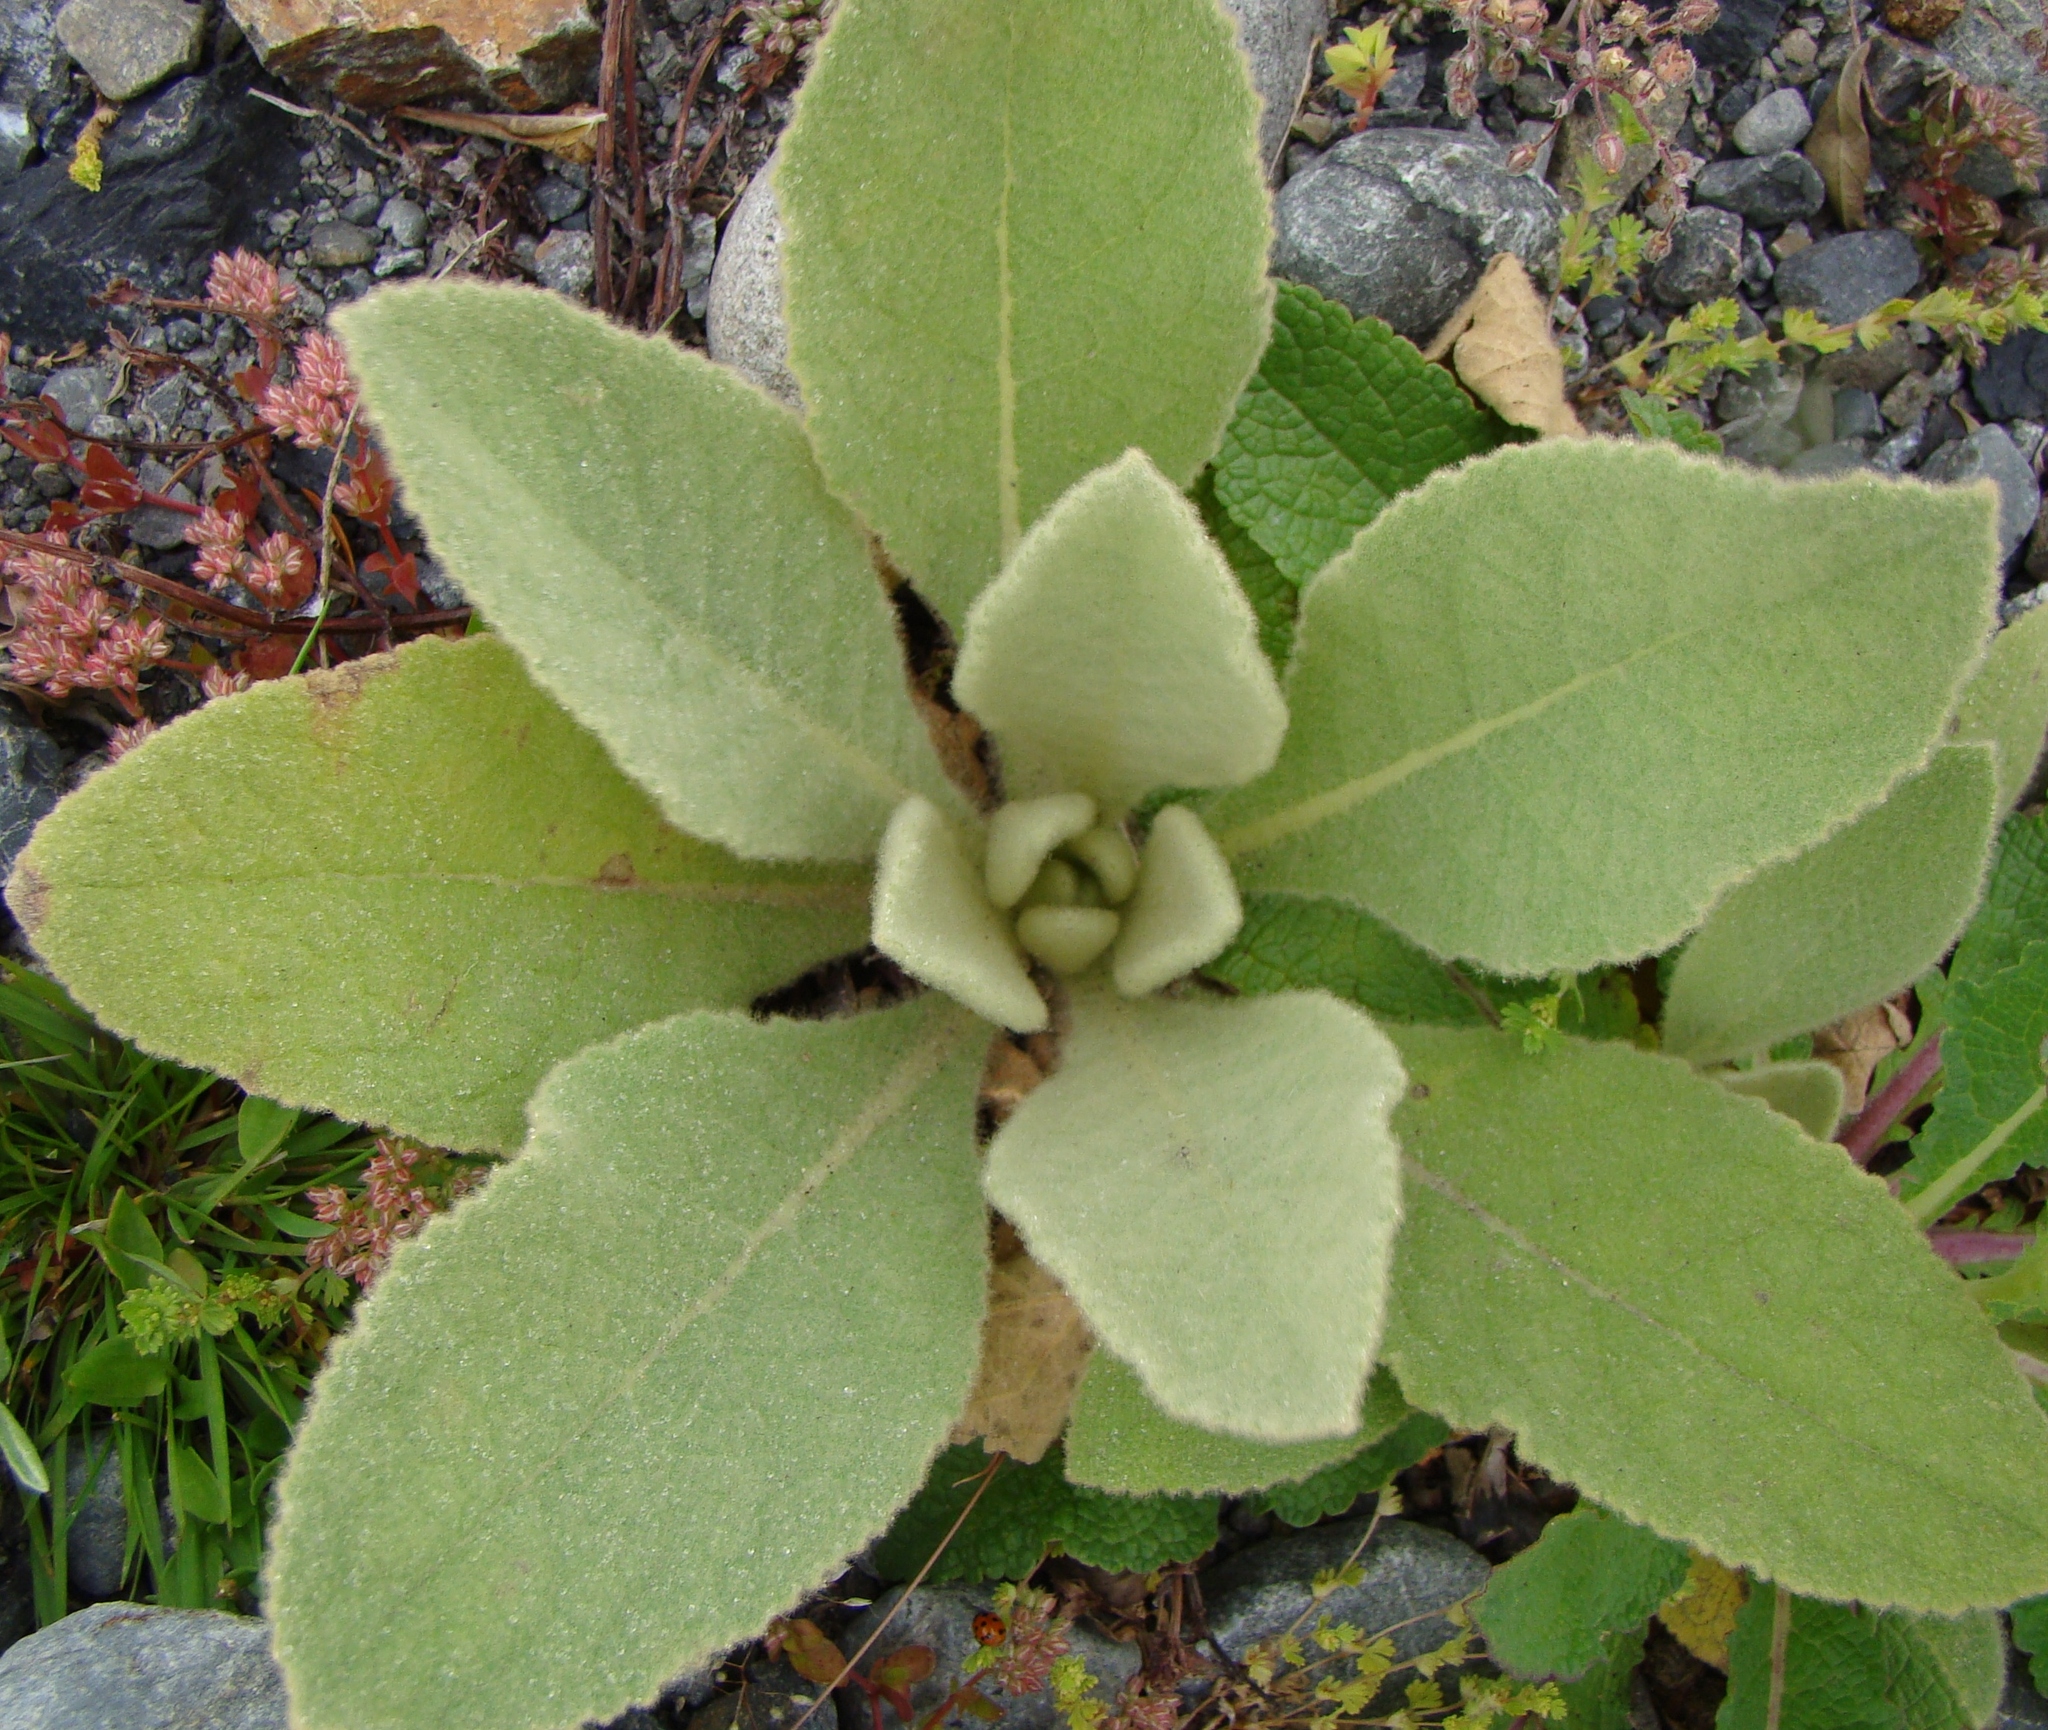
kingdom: Plantae
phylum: Tracheophyta
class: Magnoliopsida
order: Lamiales
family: Scrophulariaceae
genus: Verbascum
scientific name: Verbascum thapsus
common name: Common mullein
